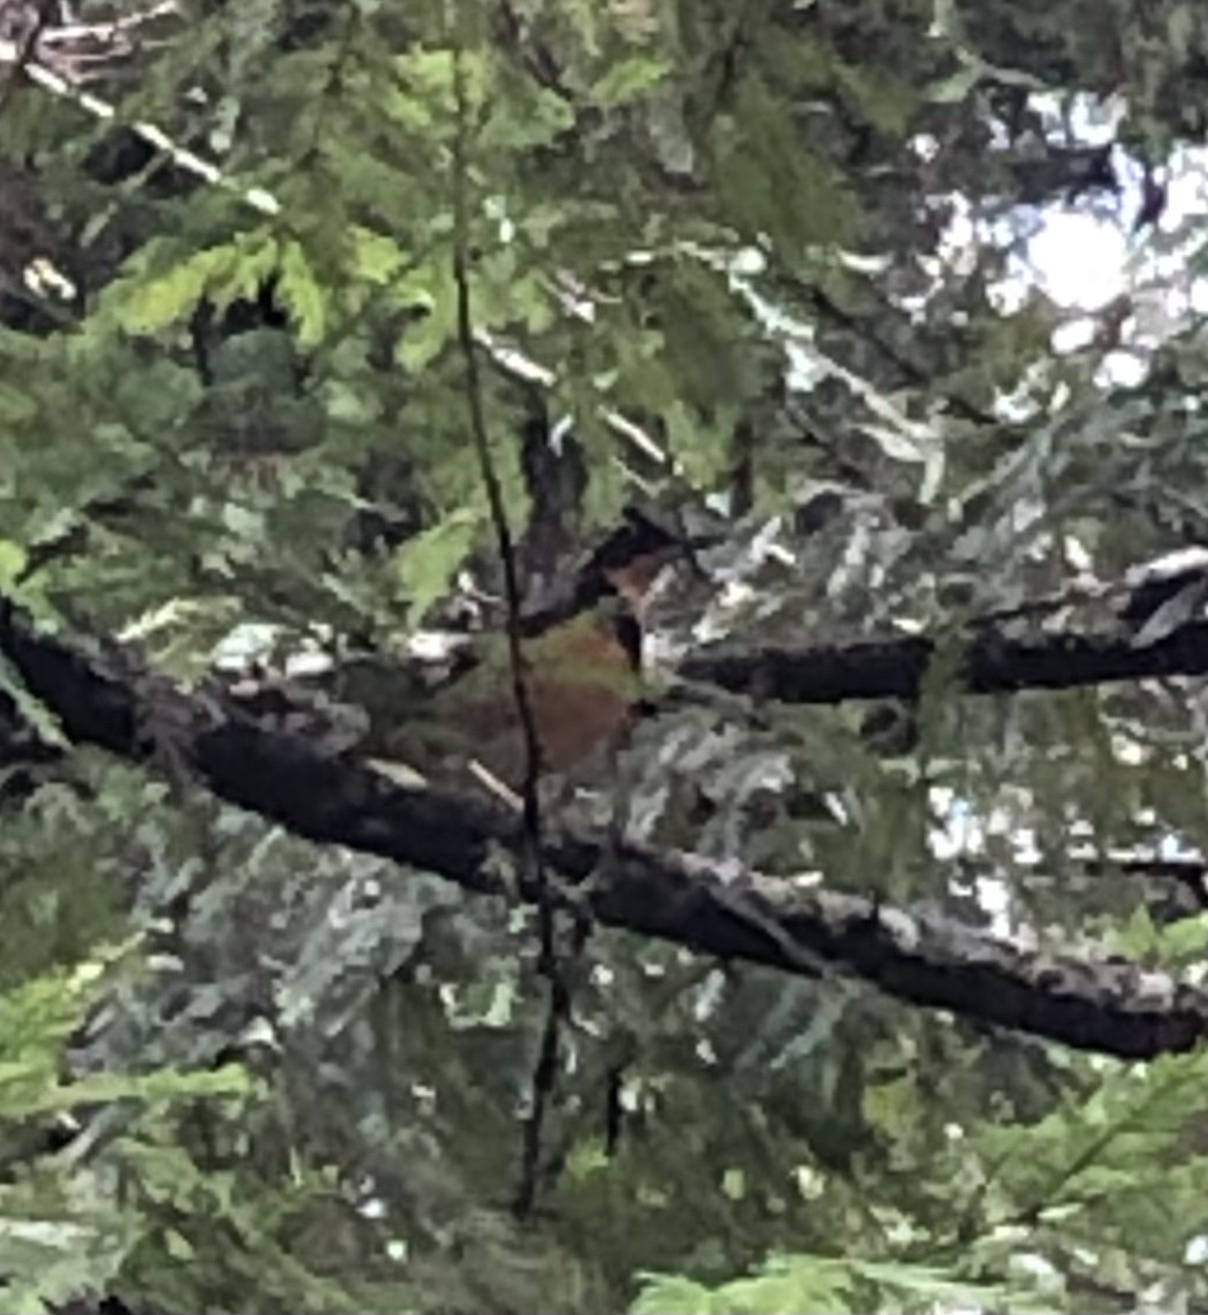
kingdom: Animalia
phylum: Chordata
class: Aves
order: Passeriformes
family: Turdidae
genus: Ixoreus
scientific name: Ixoreus naevius
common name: Varied thrush
